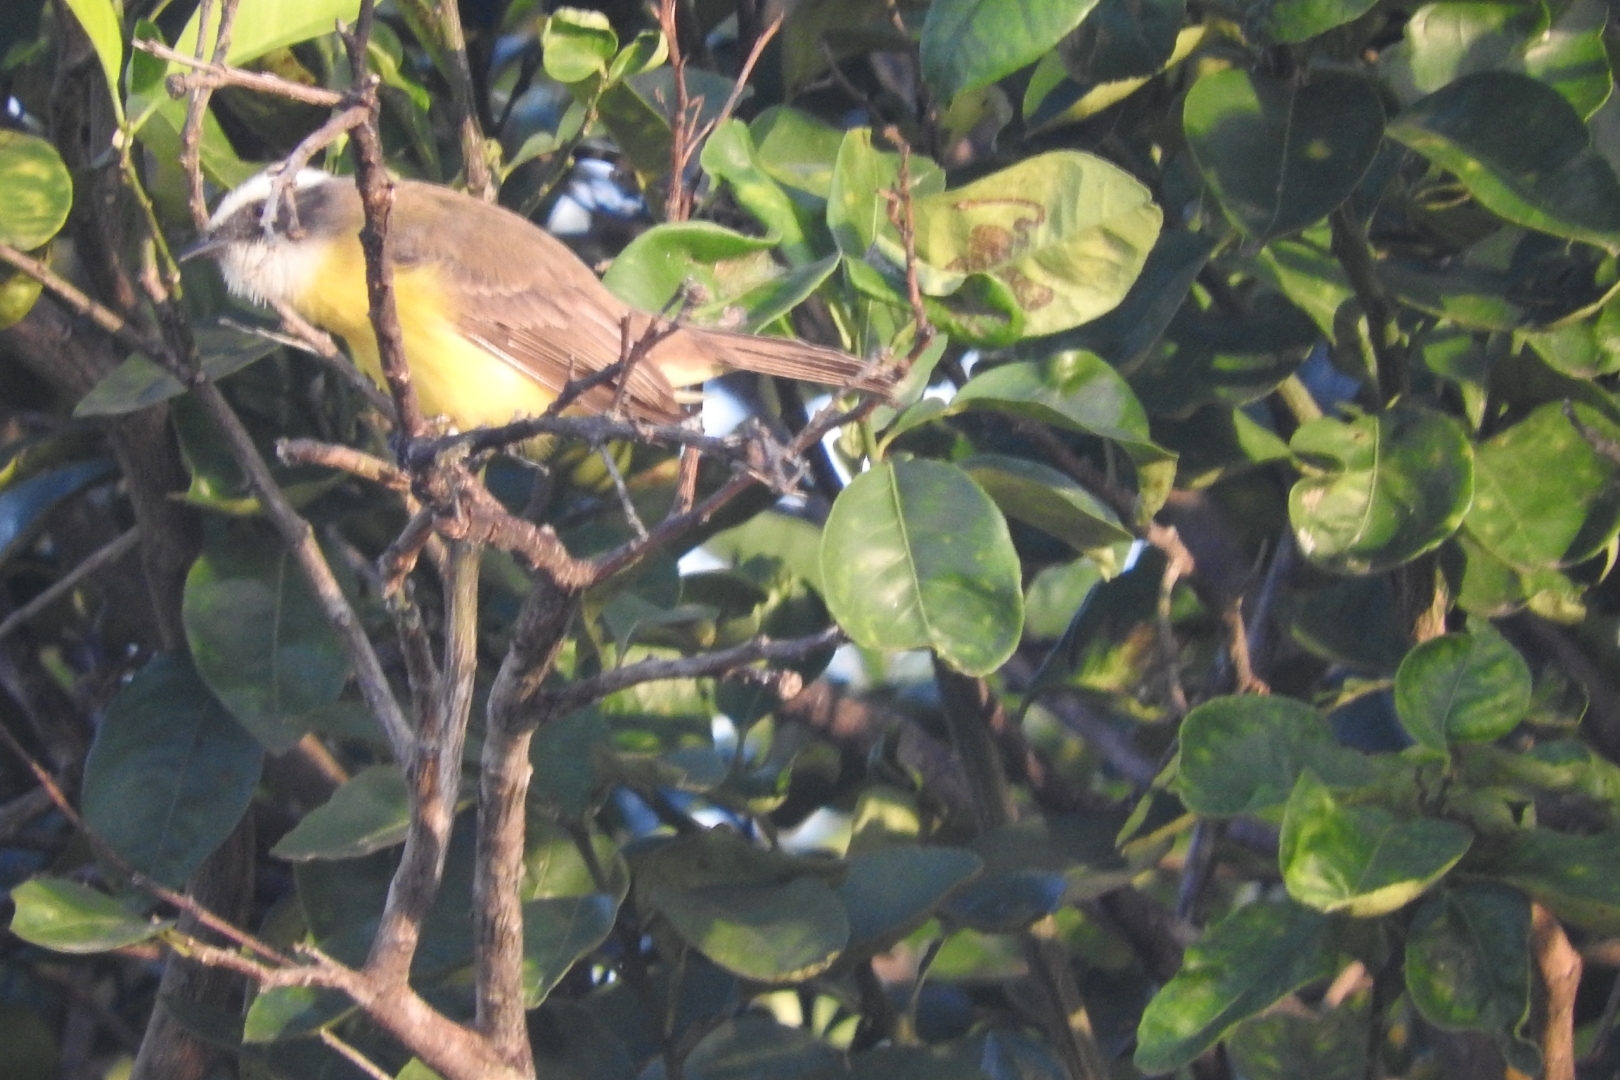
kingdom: Animalia
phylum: Chordata
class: Aves
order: Passeriformes
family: Tyrannidae
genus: Myiozetetes
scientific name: Myiozetetes similis
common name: Social flycatcher
